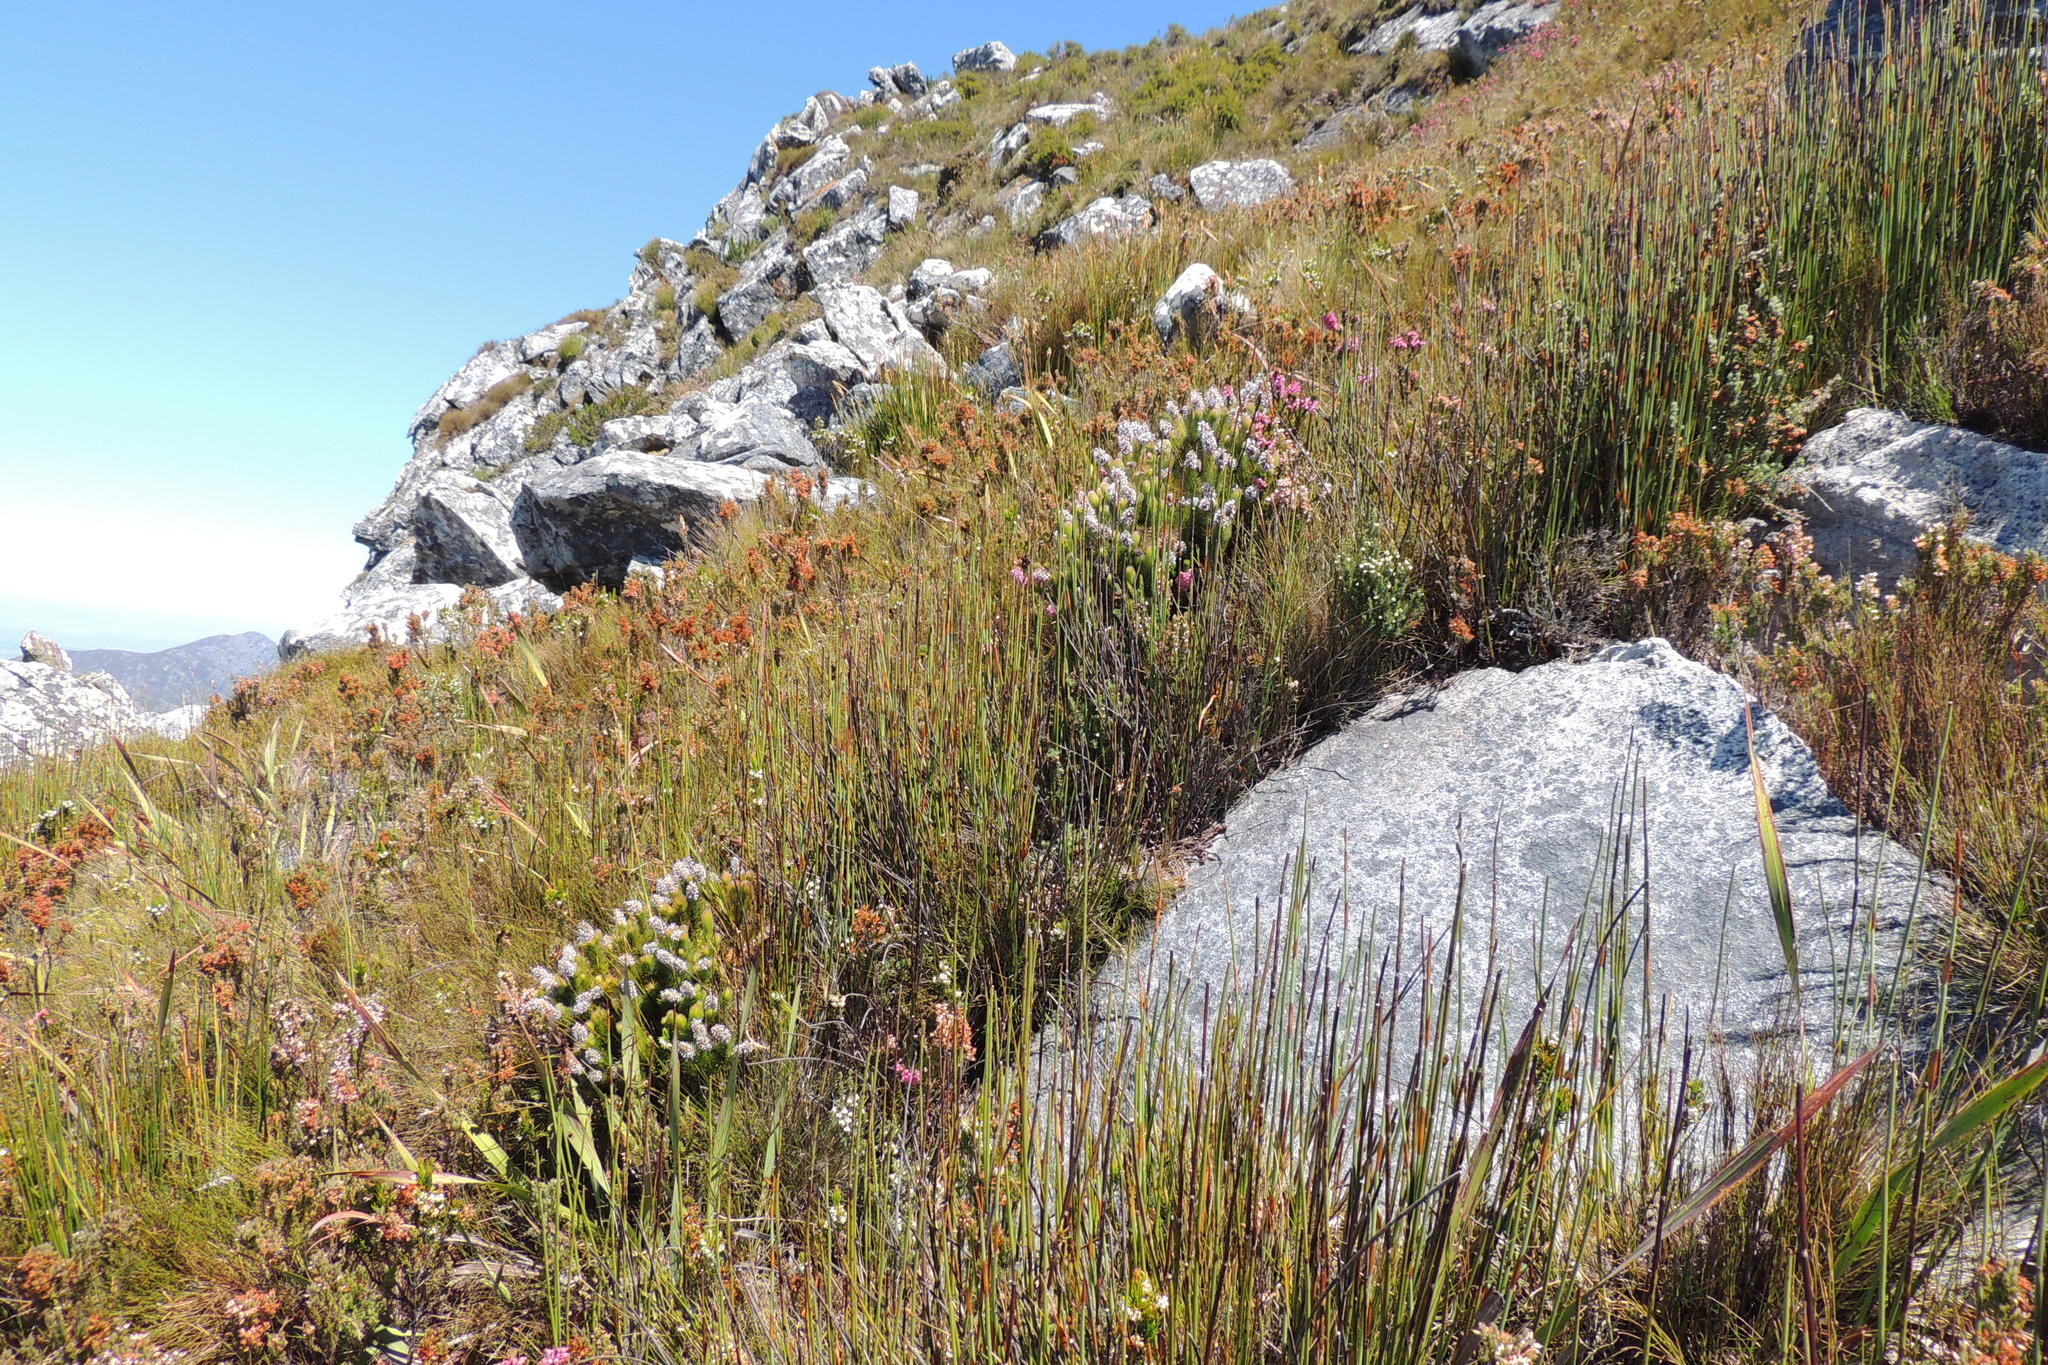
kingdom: Plantae
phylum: Tracheophyta
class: Magnoliopsida
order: Proteales
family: Proteaceae
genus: Spatalla
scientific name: Spatalla nubicola
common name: Medusa spoon
